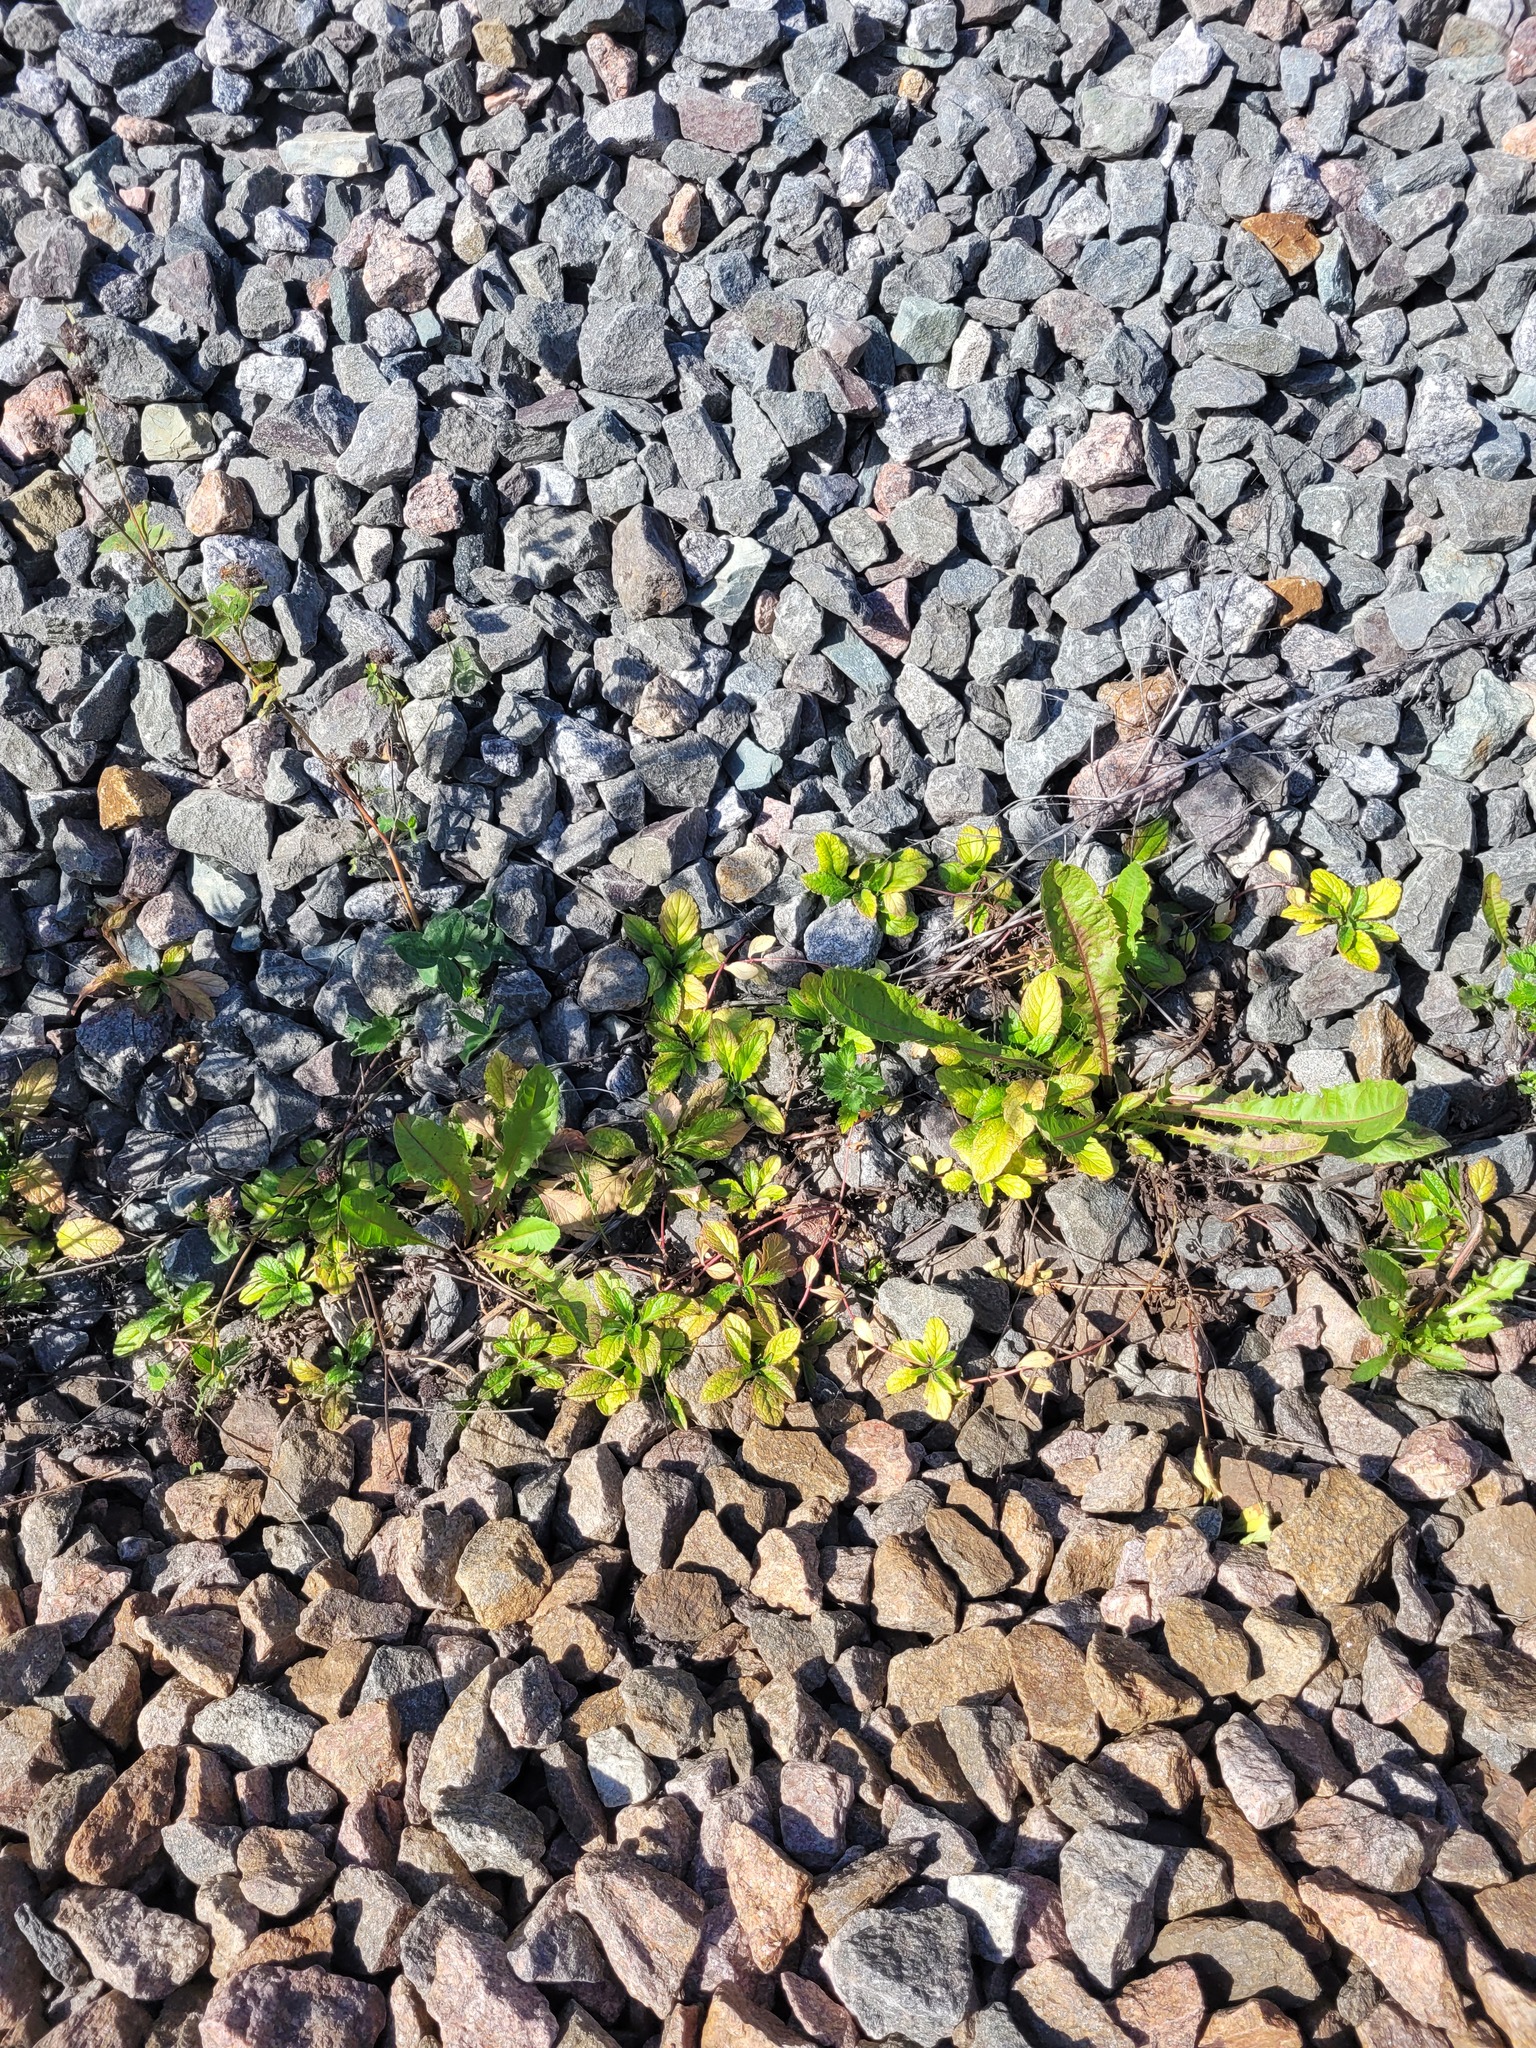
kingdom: Plantae
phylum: Tracheophyta
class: Magnoliopsida
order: Lamiales
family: Lamiaceae
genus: Ajuga
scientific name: Ajuga reptans
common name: Bugle
